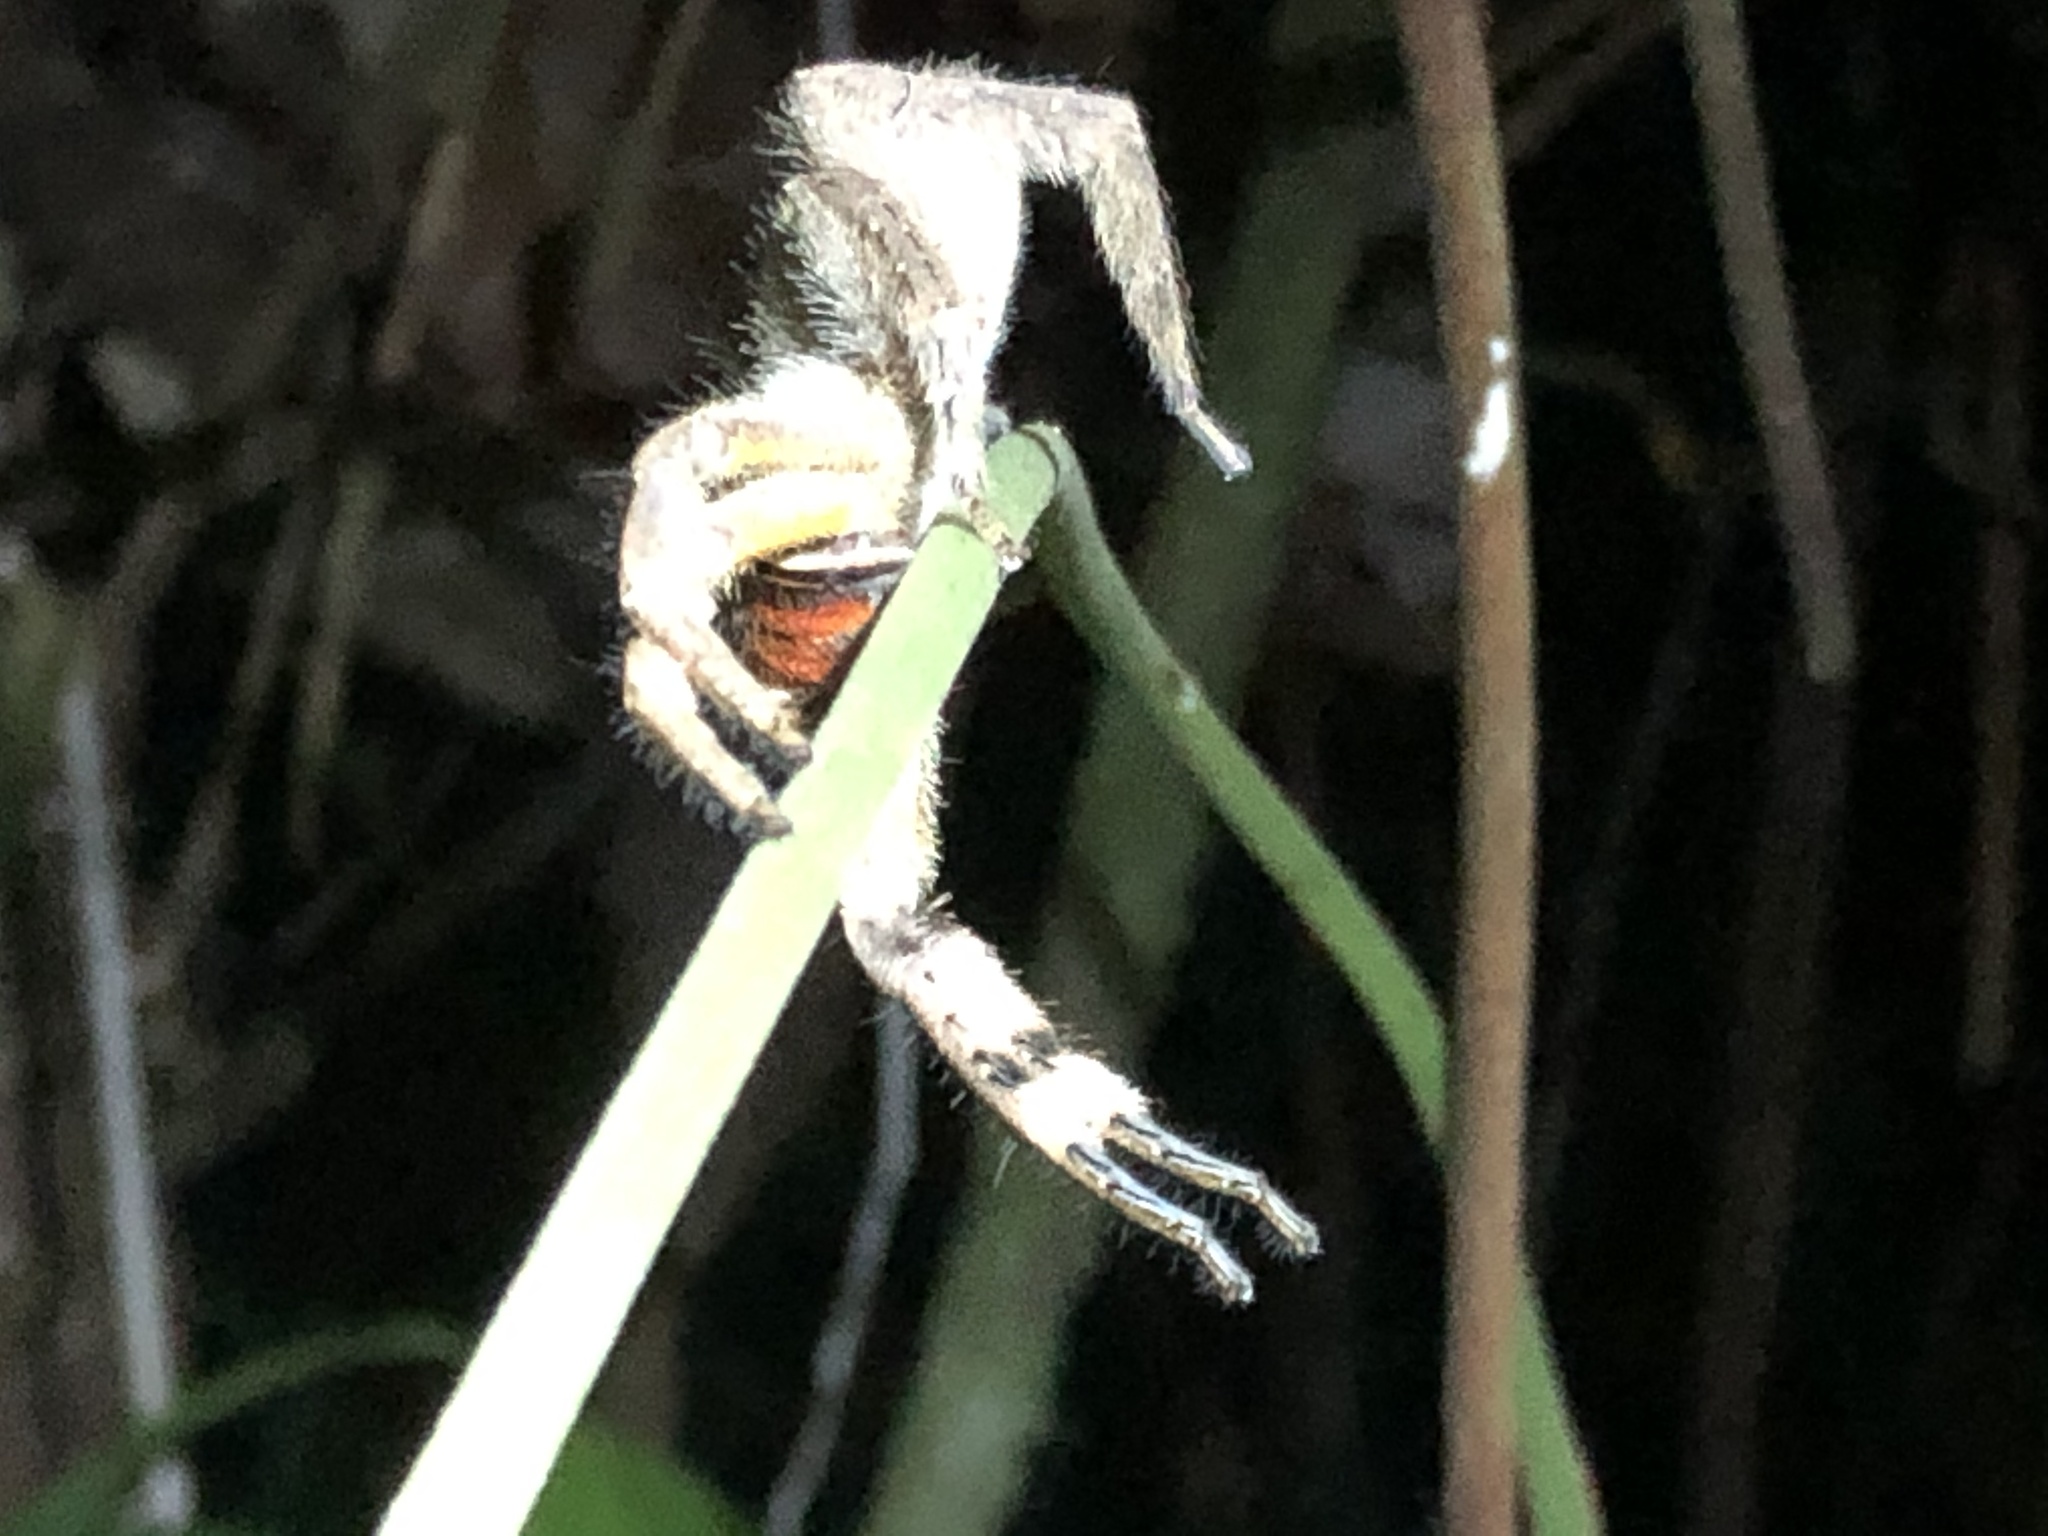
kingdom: Animalia
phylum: Arthropoda
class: Arachnida
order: Araneae
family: Ctenidae
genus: Phoneutria
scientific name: Phoneutria boliviensis
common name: Wandering spiders
